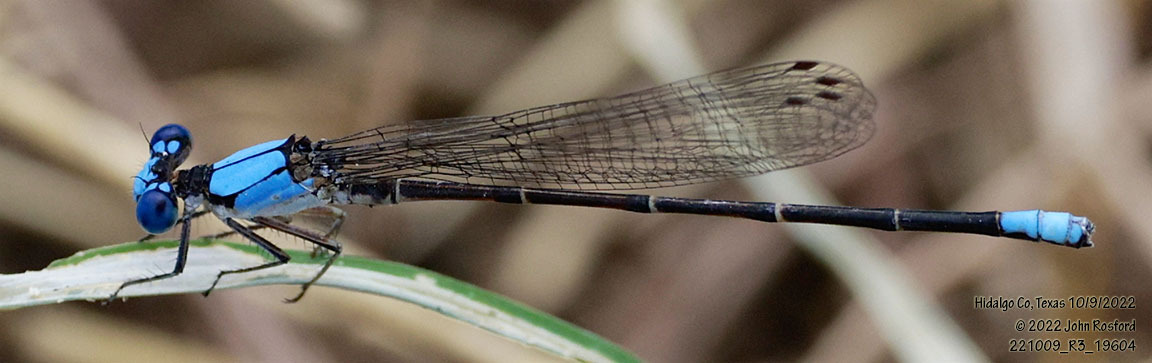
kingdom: Animalia
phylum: Arthropoda
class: Insecta
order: Odonata
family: Coenagrionidae
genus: Argia
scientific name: Argia apicalis
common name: Blue-fronted dancer
